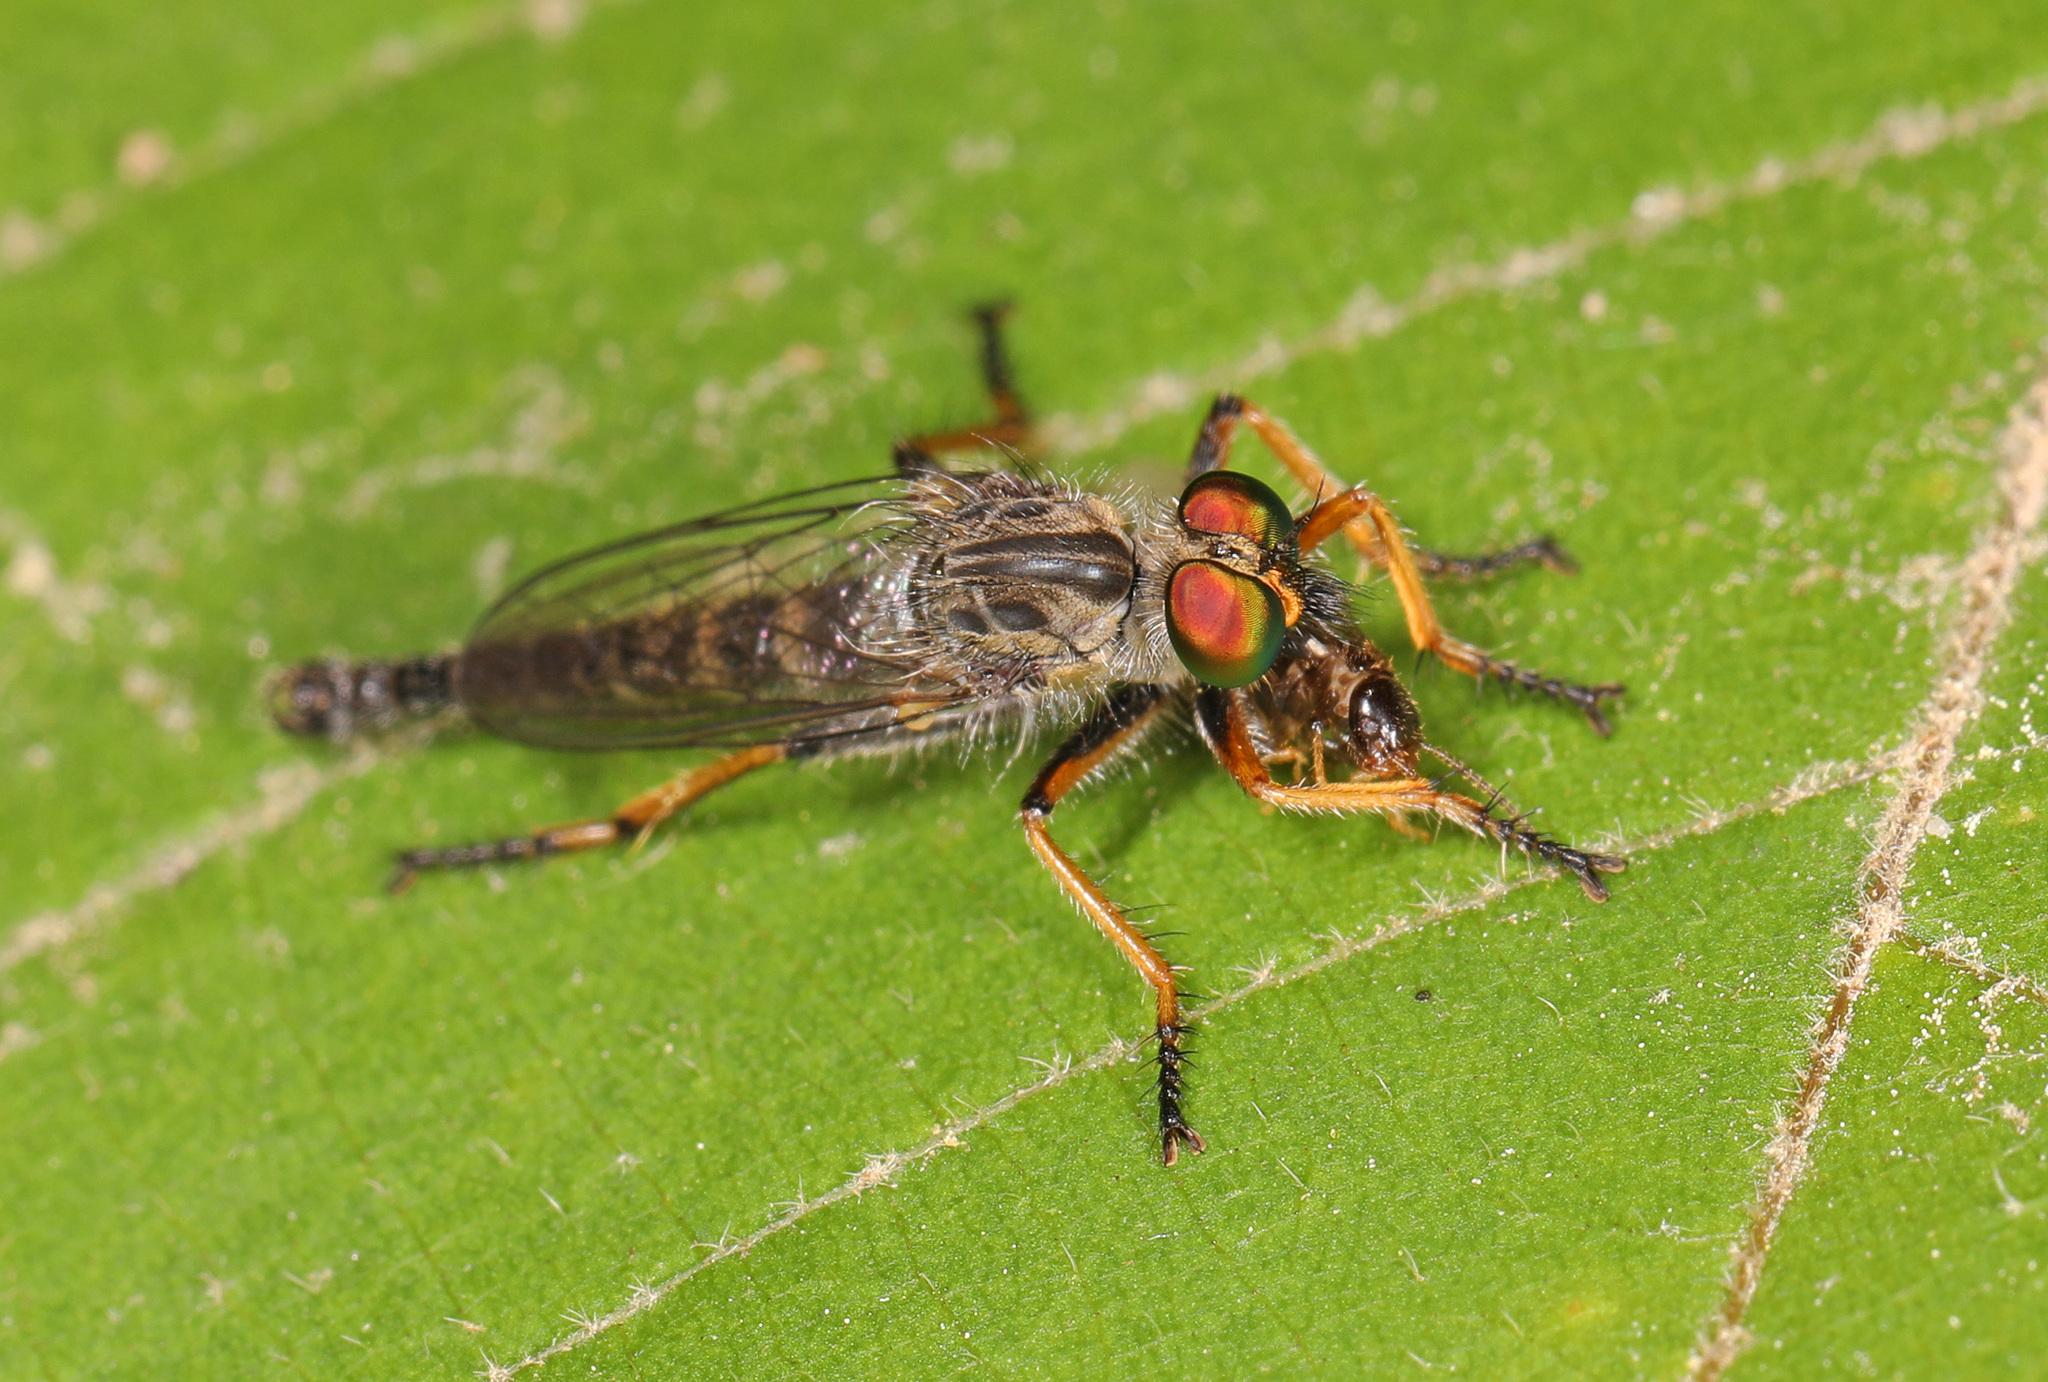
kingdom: Animalia
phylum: Arthropoda
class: Insecta
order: Diptera
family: Asilidae
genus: Asilus
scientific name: Asilus flavofemoratus
